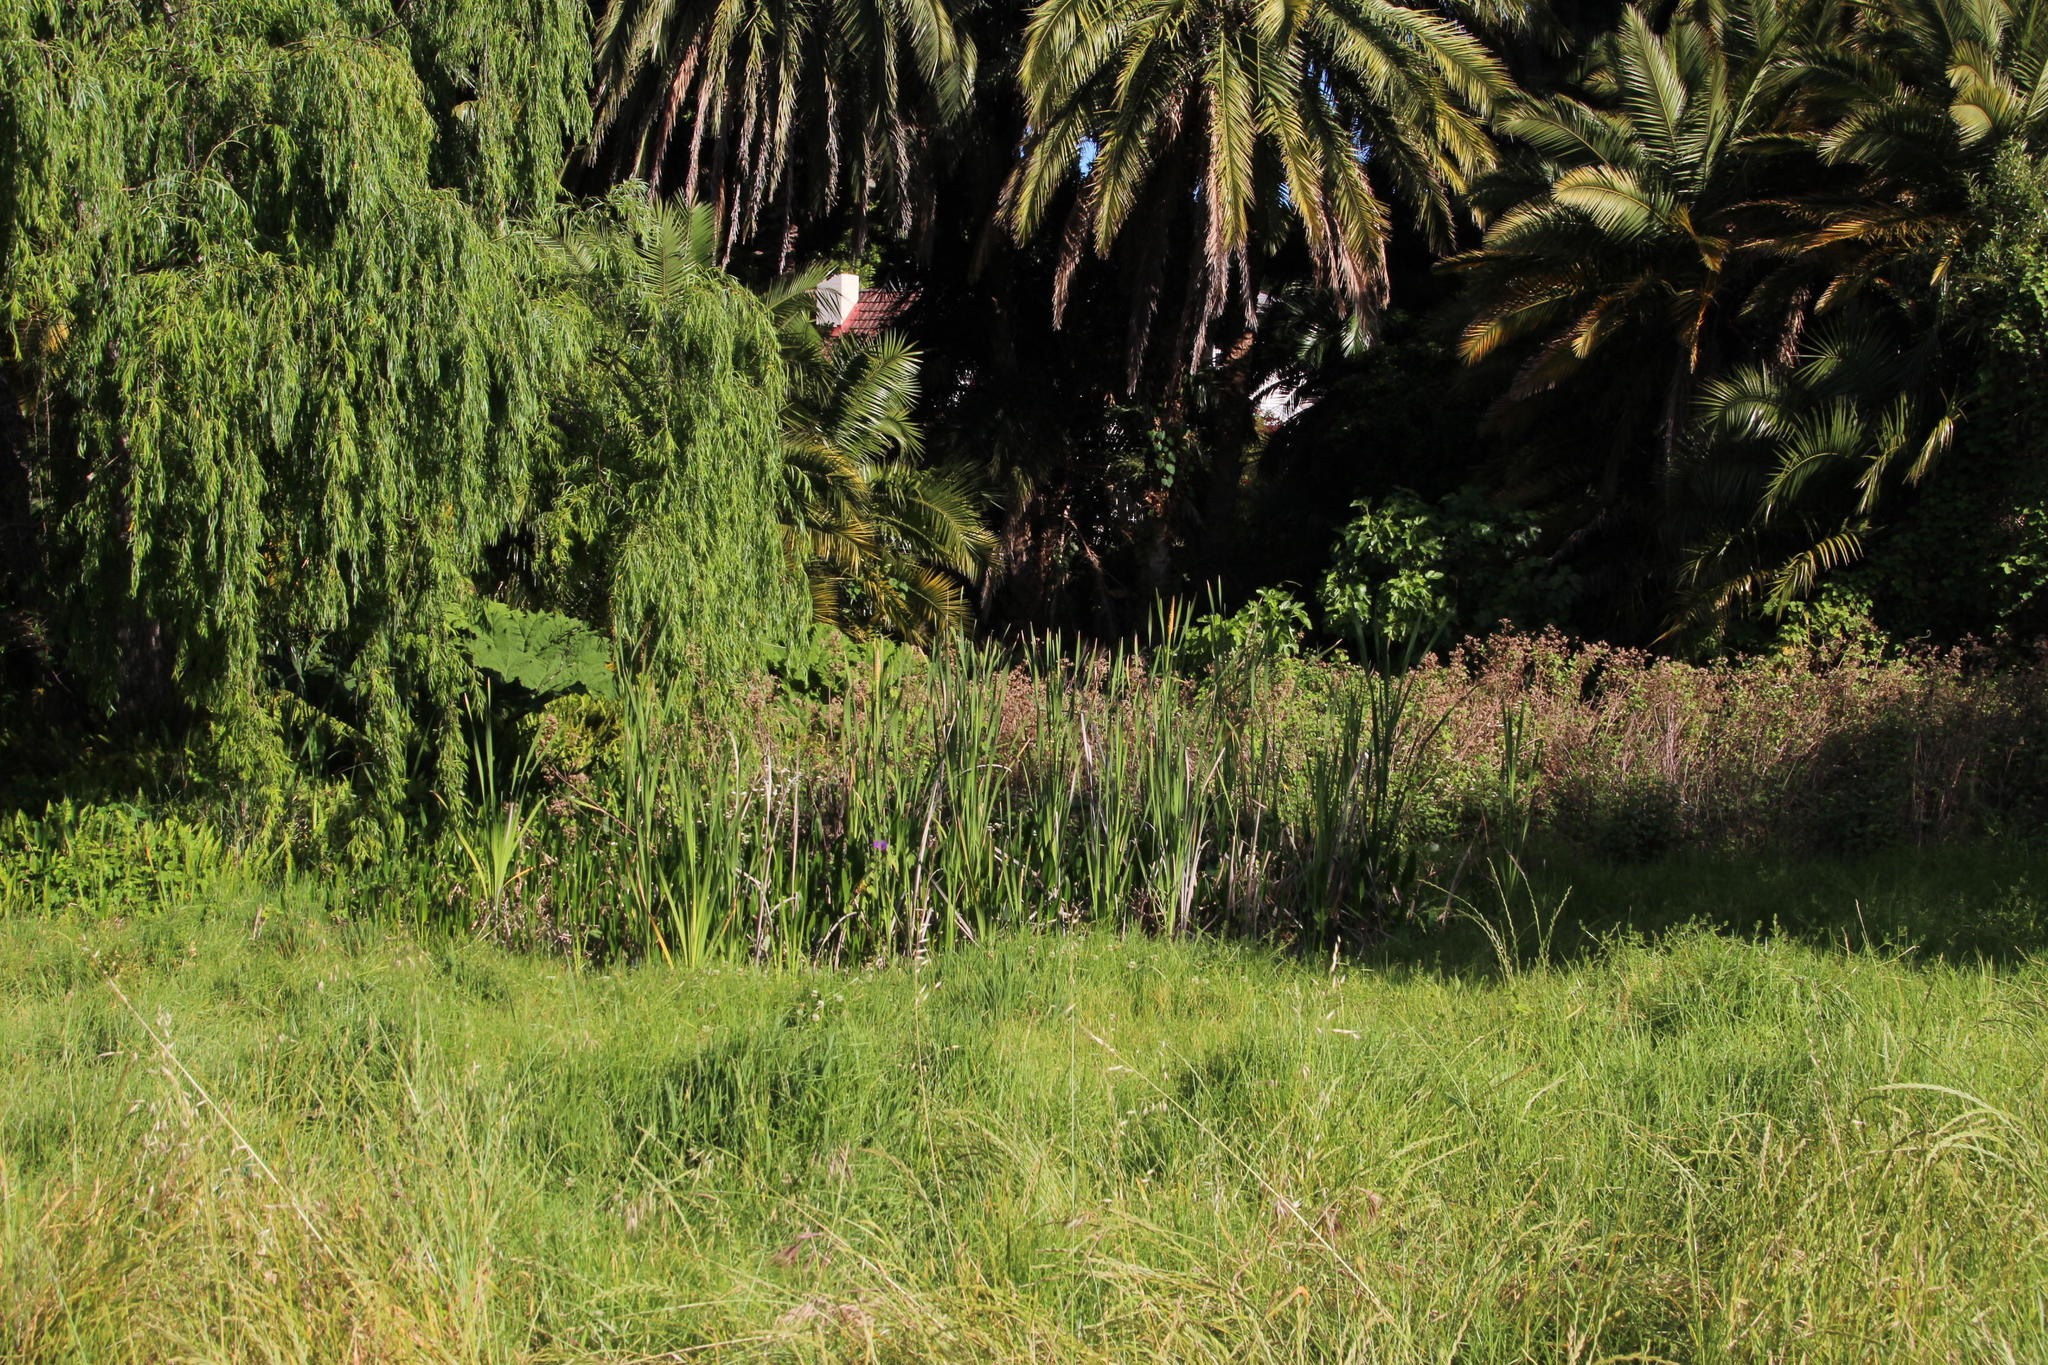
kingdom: Plantae
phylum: Tracheophyta
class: Liliopsida
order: Poales
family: Typhaceae
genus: Typha
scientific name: Typha capensis
